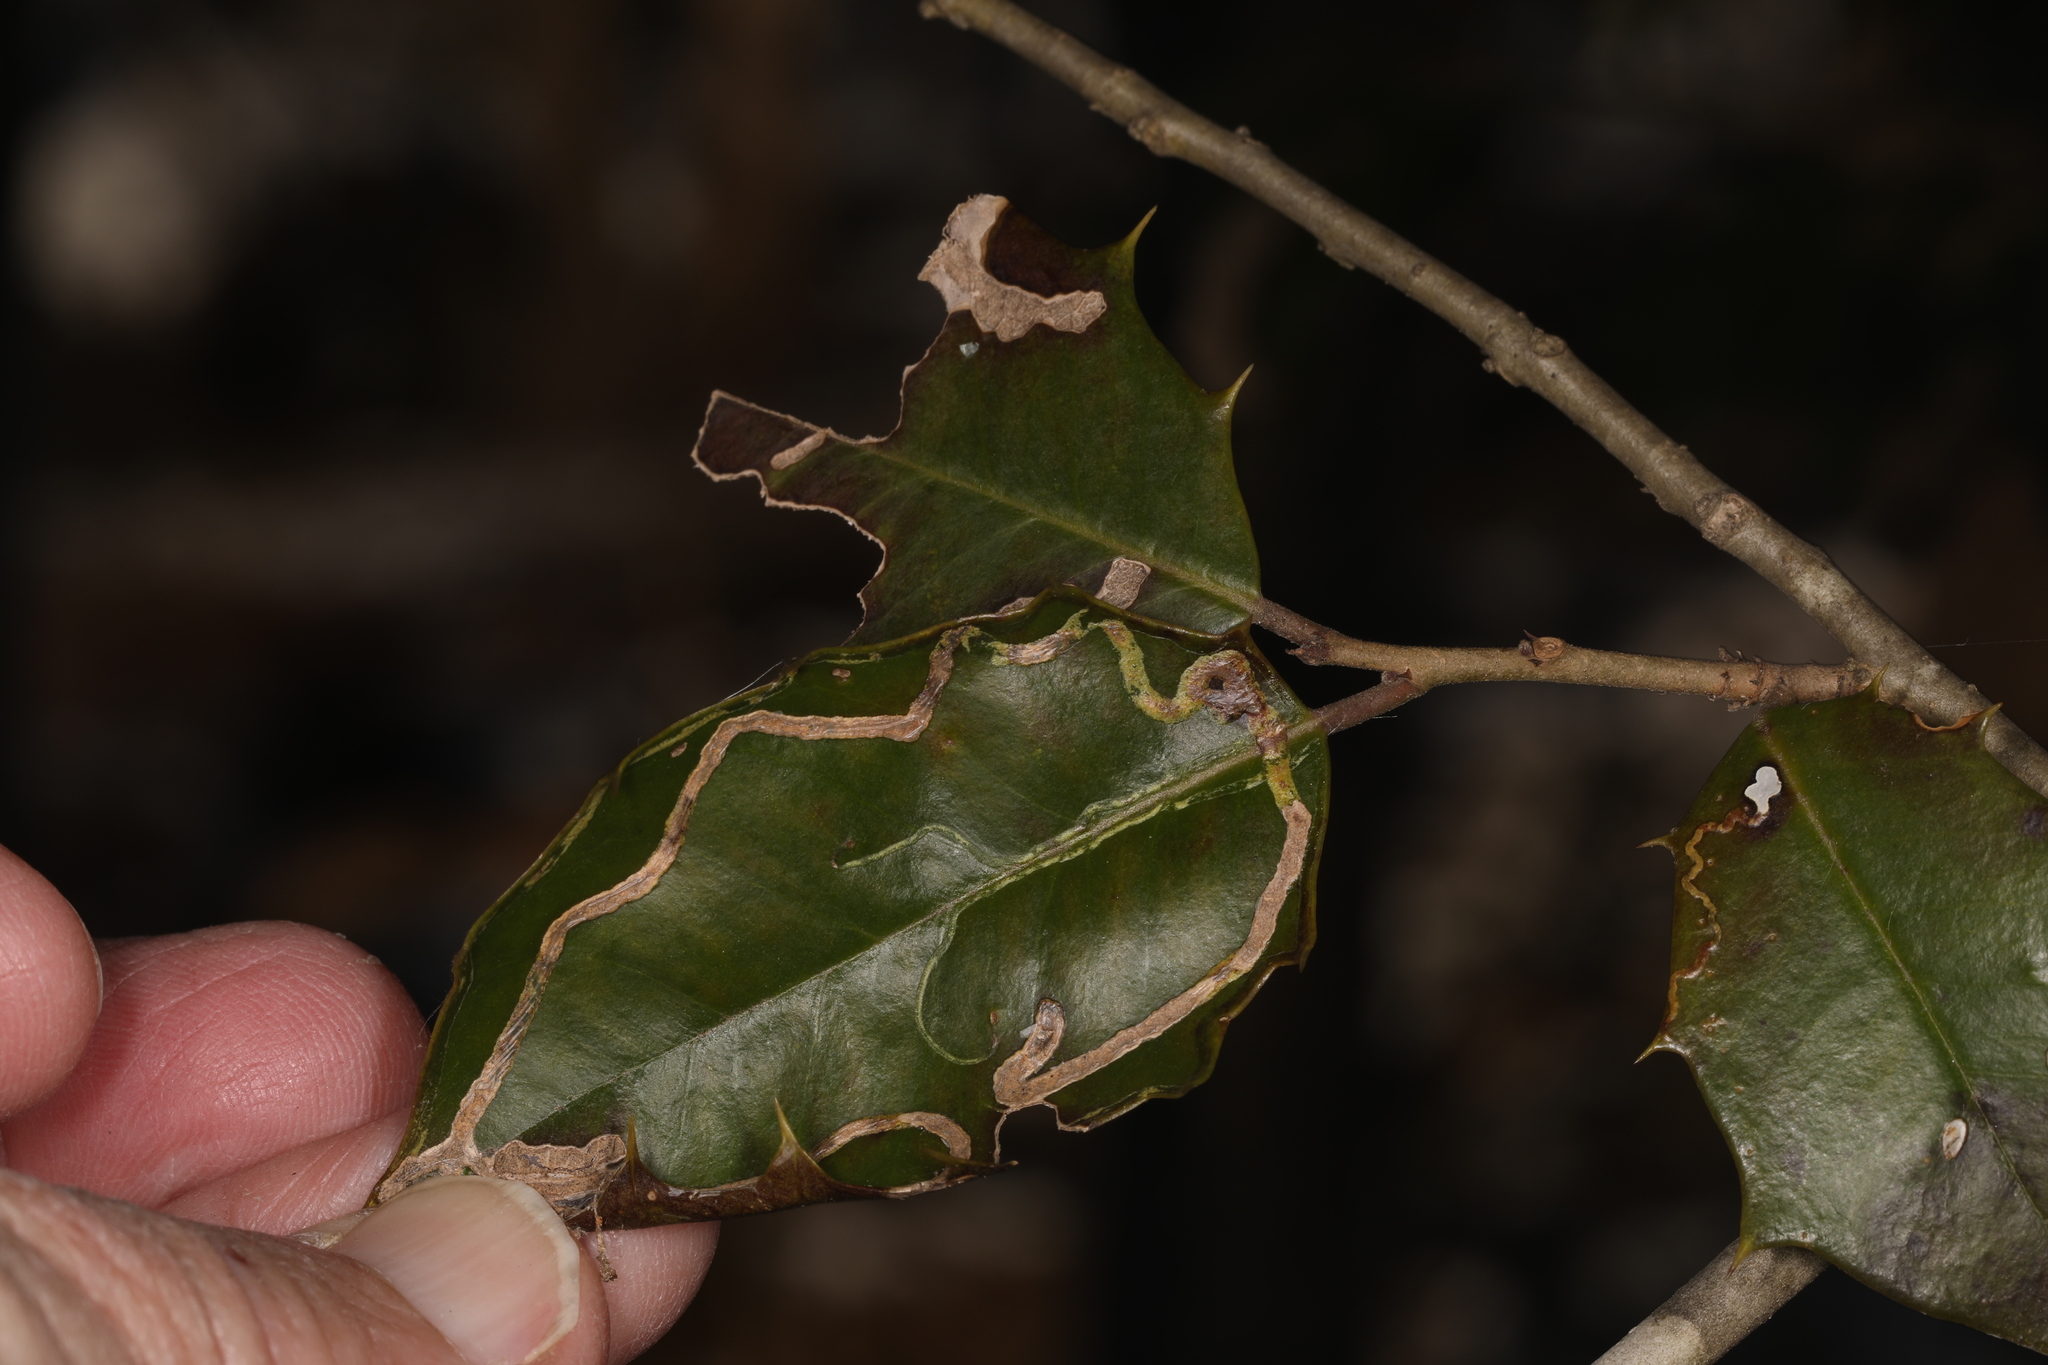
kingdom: Animalia
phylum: Arthropoda
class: Insecta
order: Diptera
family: Agromyzidae
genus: Phytomyza
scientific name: Phytomyza opacae
